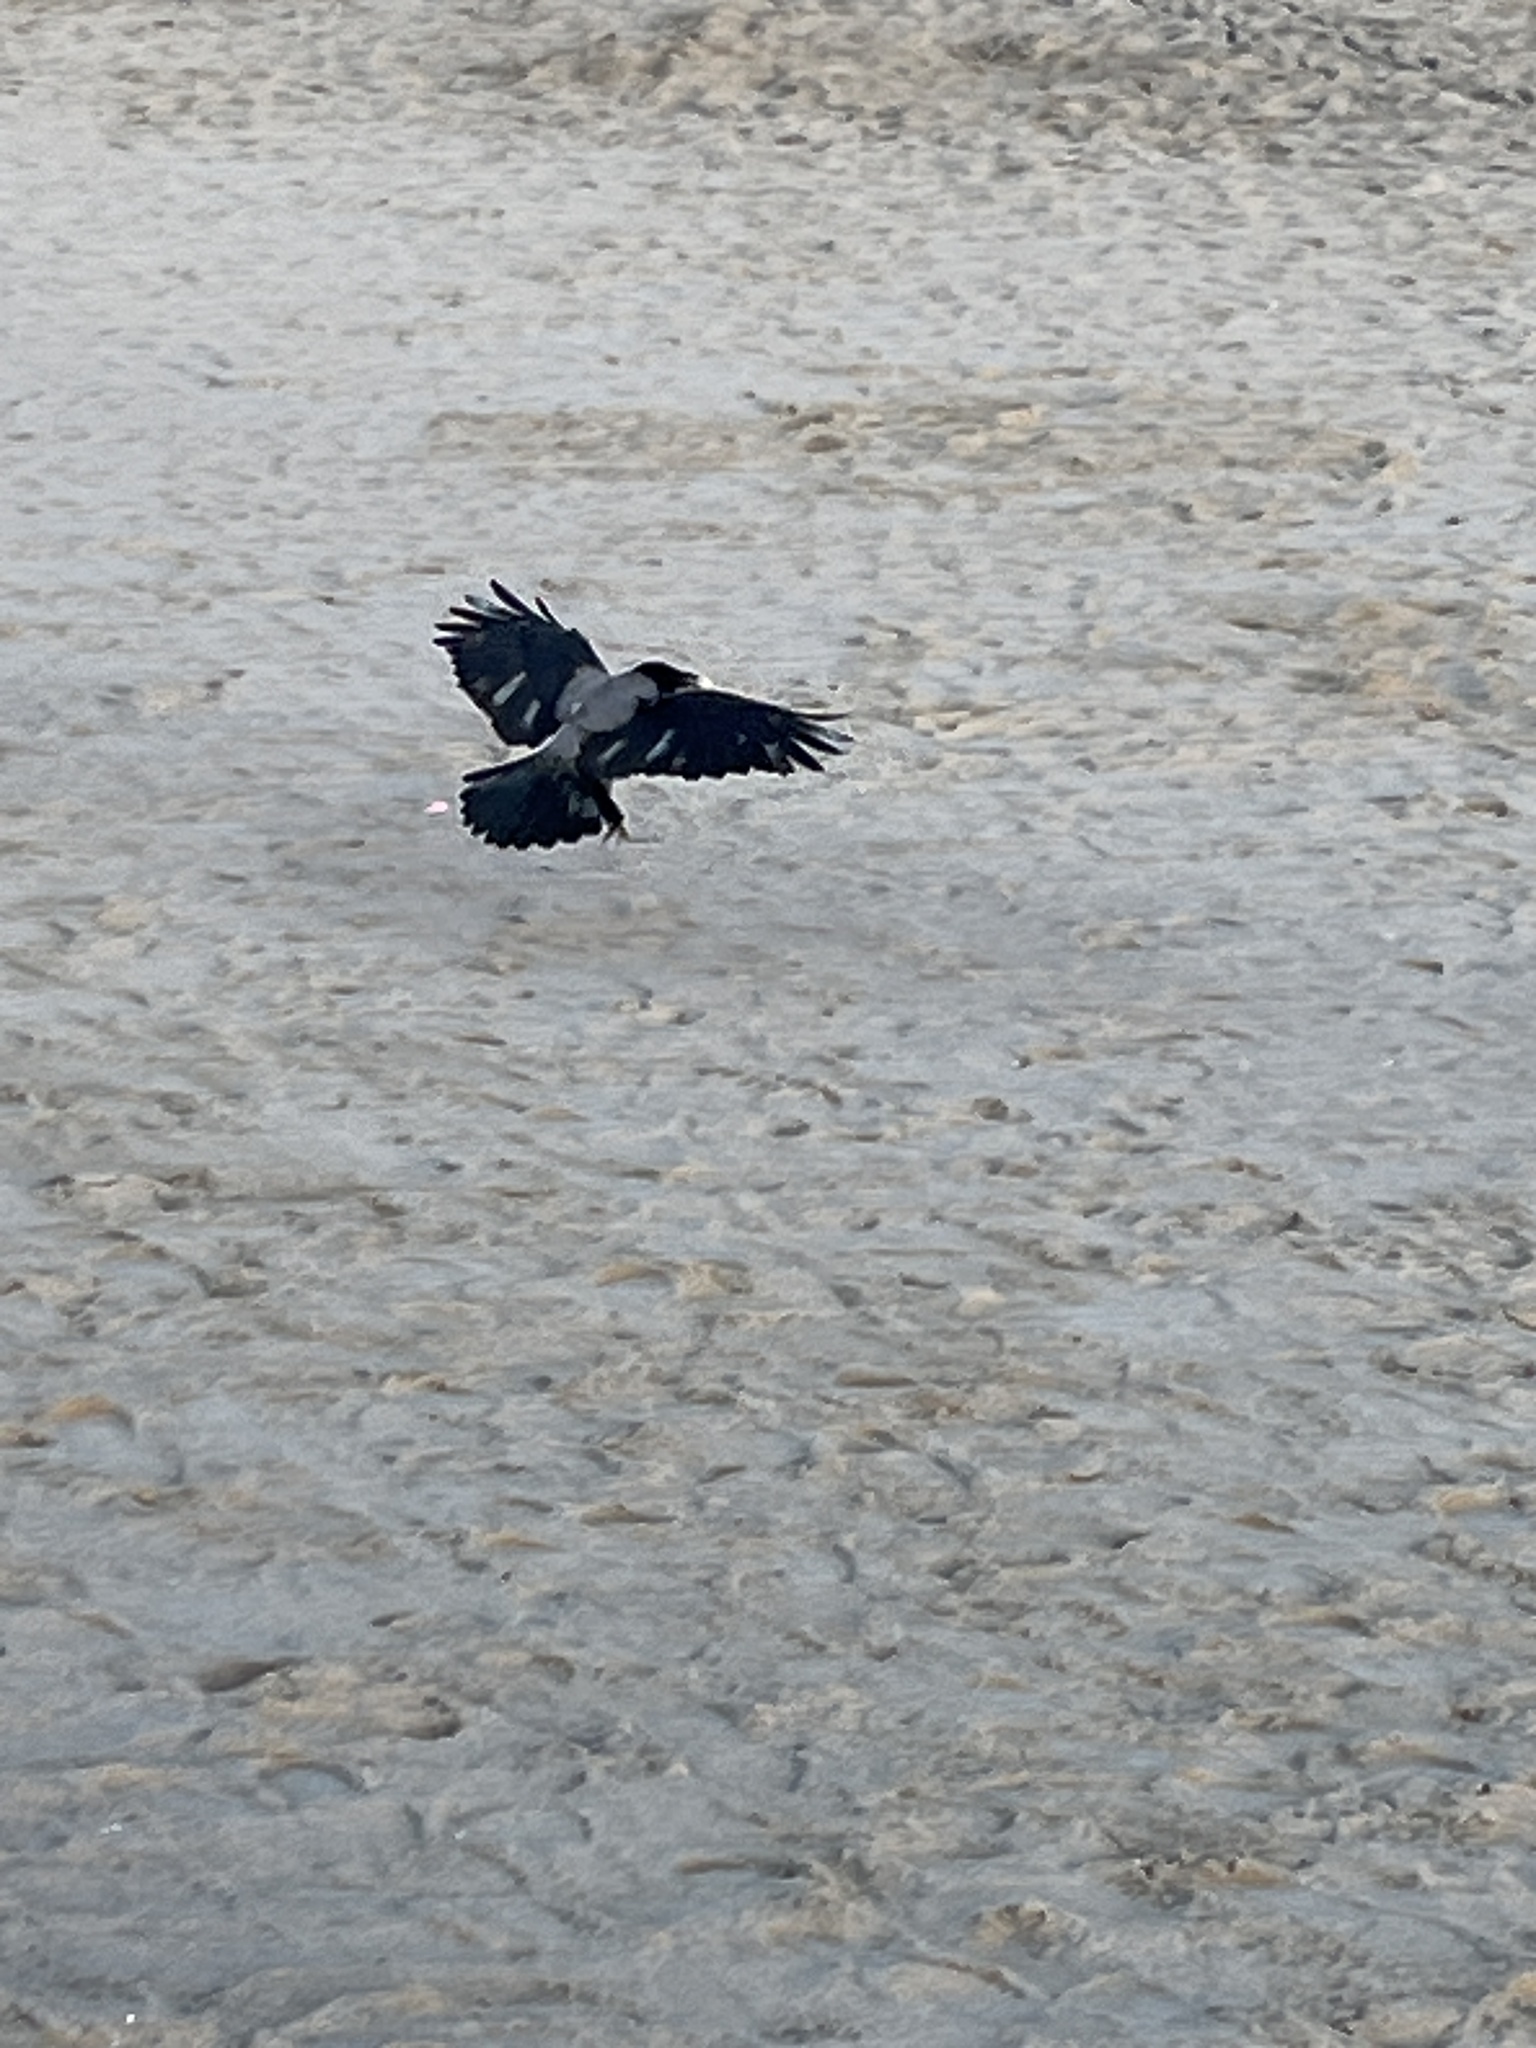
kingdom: Animalia
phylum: Chordata
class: Aves
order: Passeriformes
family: Corvidae
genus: Corvus
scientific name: Corvus cornix
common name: Hooded crow
